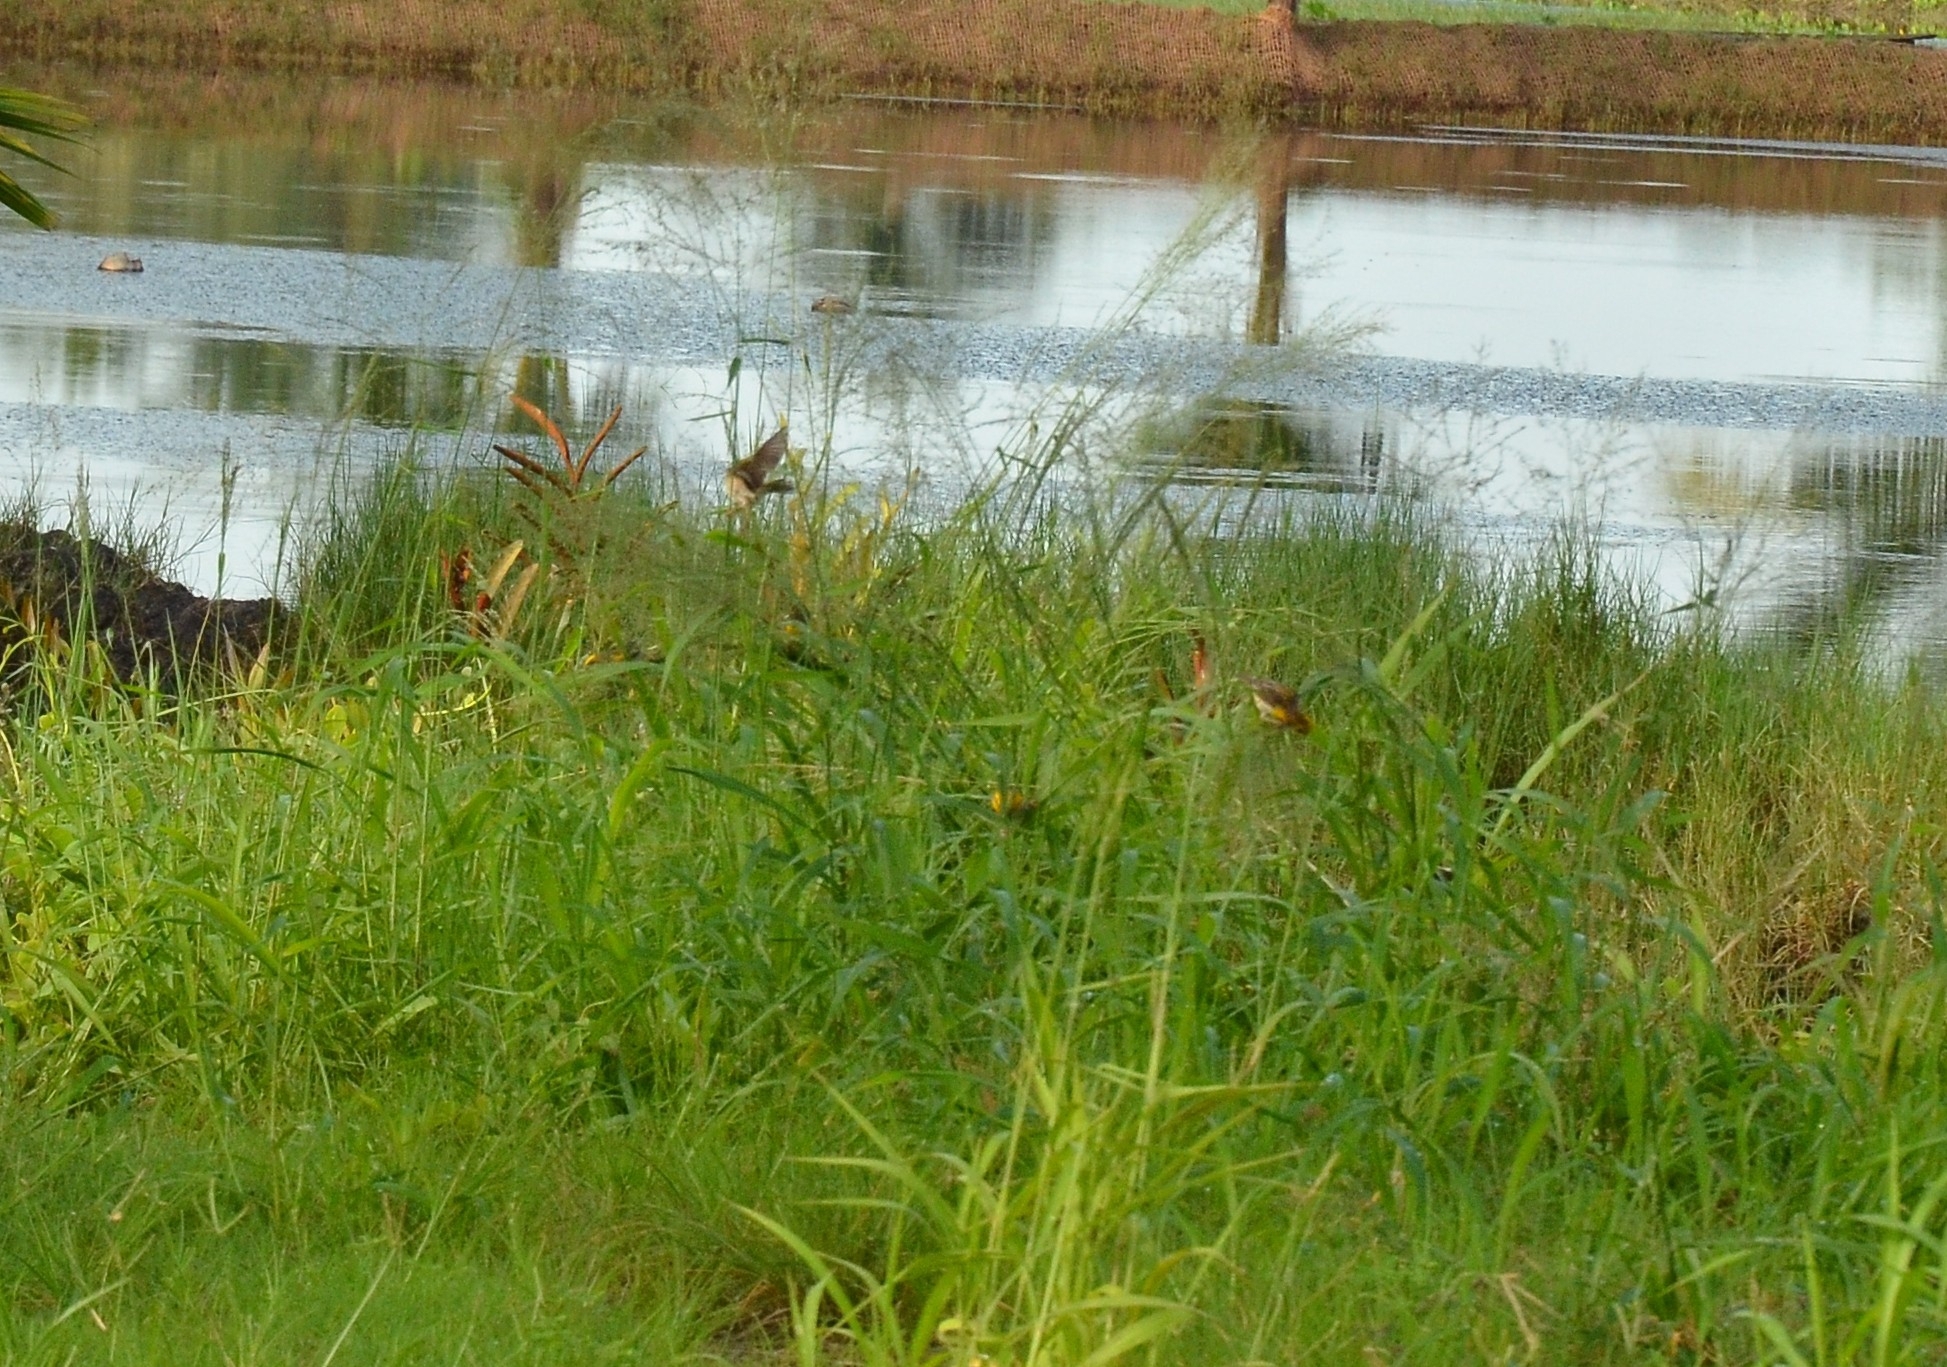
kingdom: Animalia
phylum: Chordata
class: Aves
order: Passeriformes
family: Ploceidae
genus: Ploceus
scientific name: Ploceus philippinus
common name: Baya weaver
